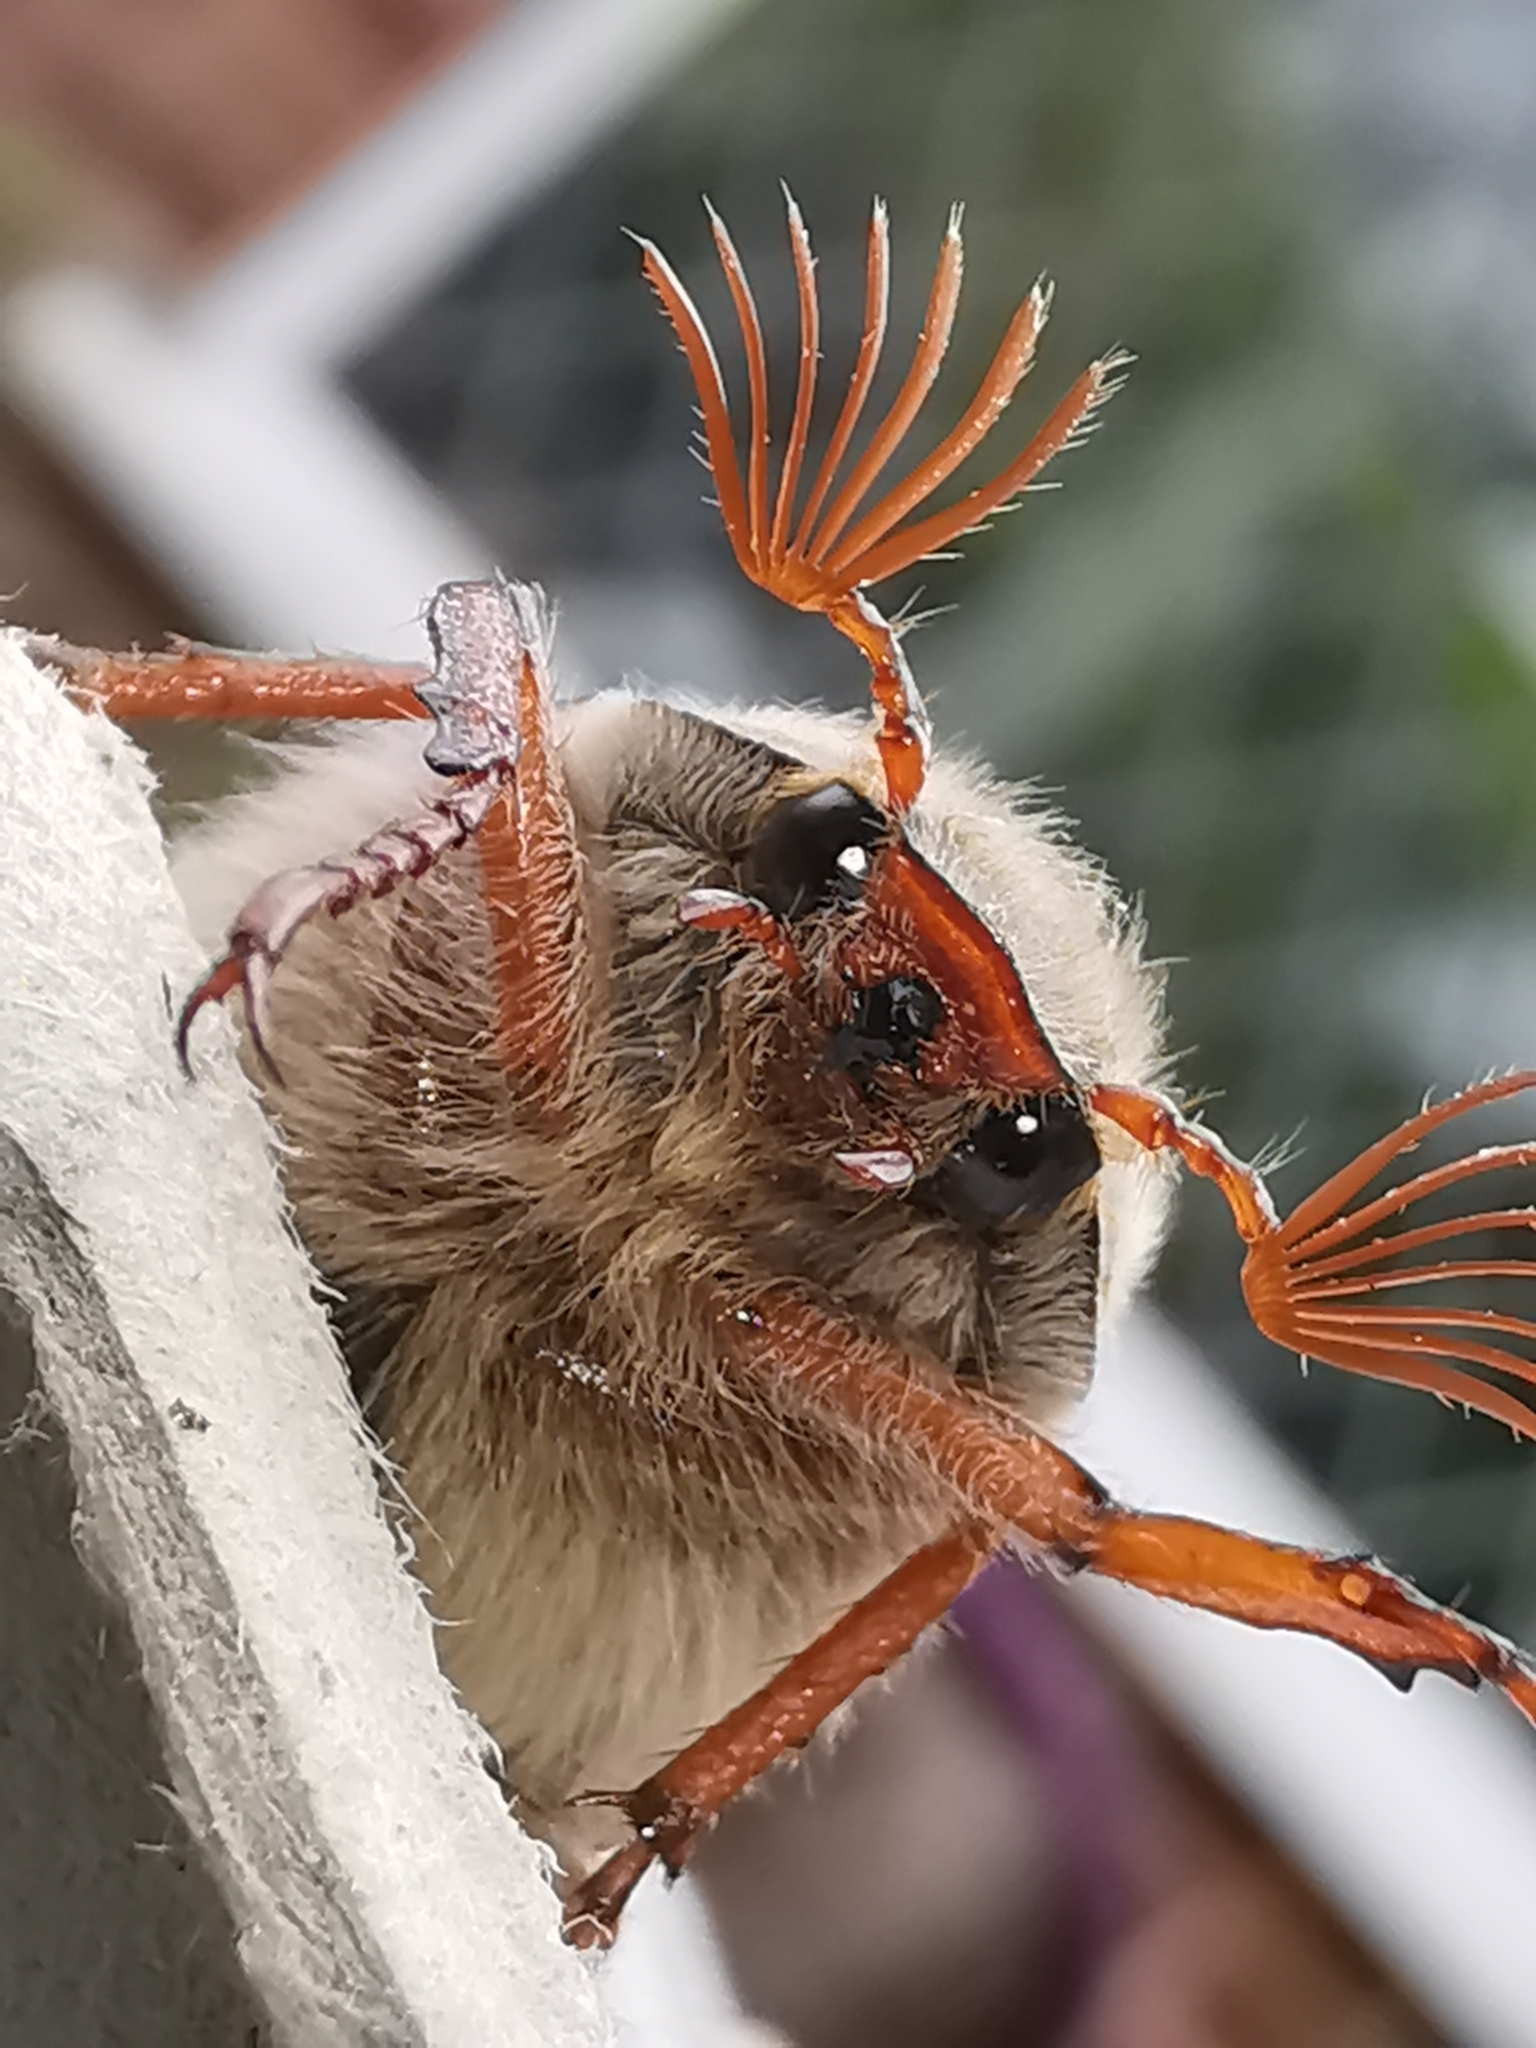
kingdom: Animalia
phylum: Arthropoda
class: Insecta
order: Coleoptera
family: Scarabaeidae
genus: Melolontha
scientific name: Melolontha melolontha
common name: Cockchafer maybeetle
